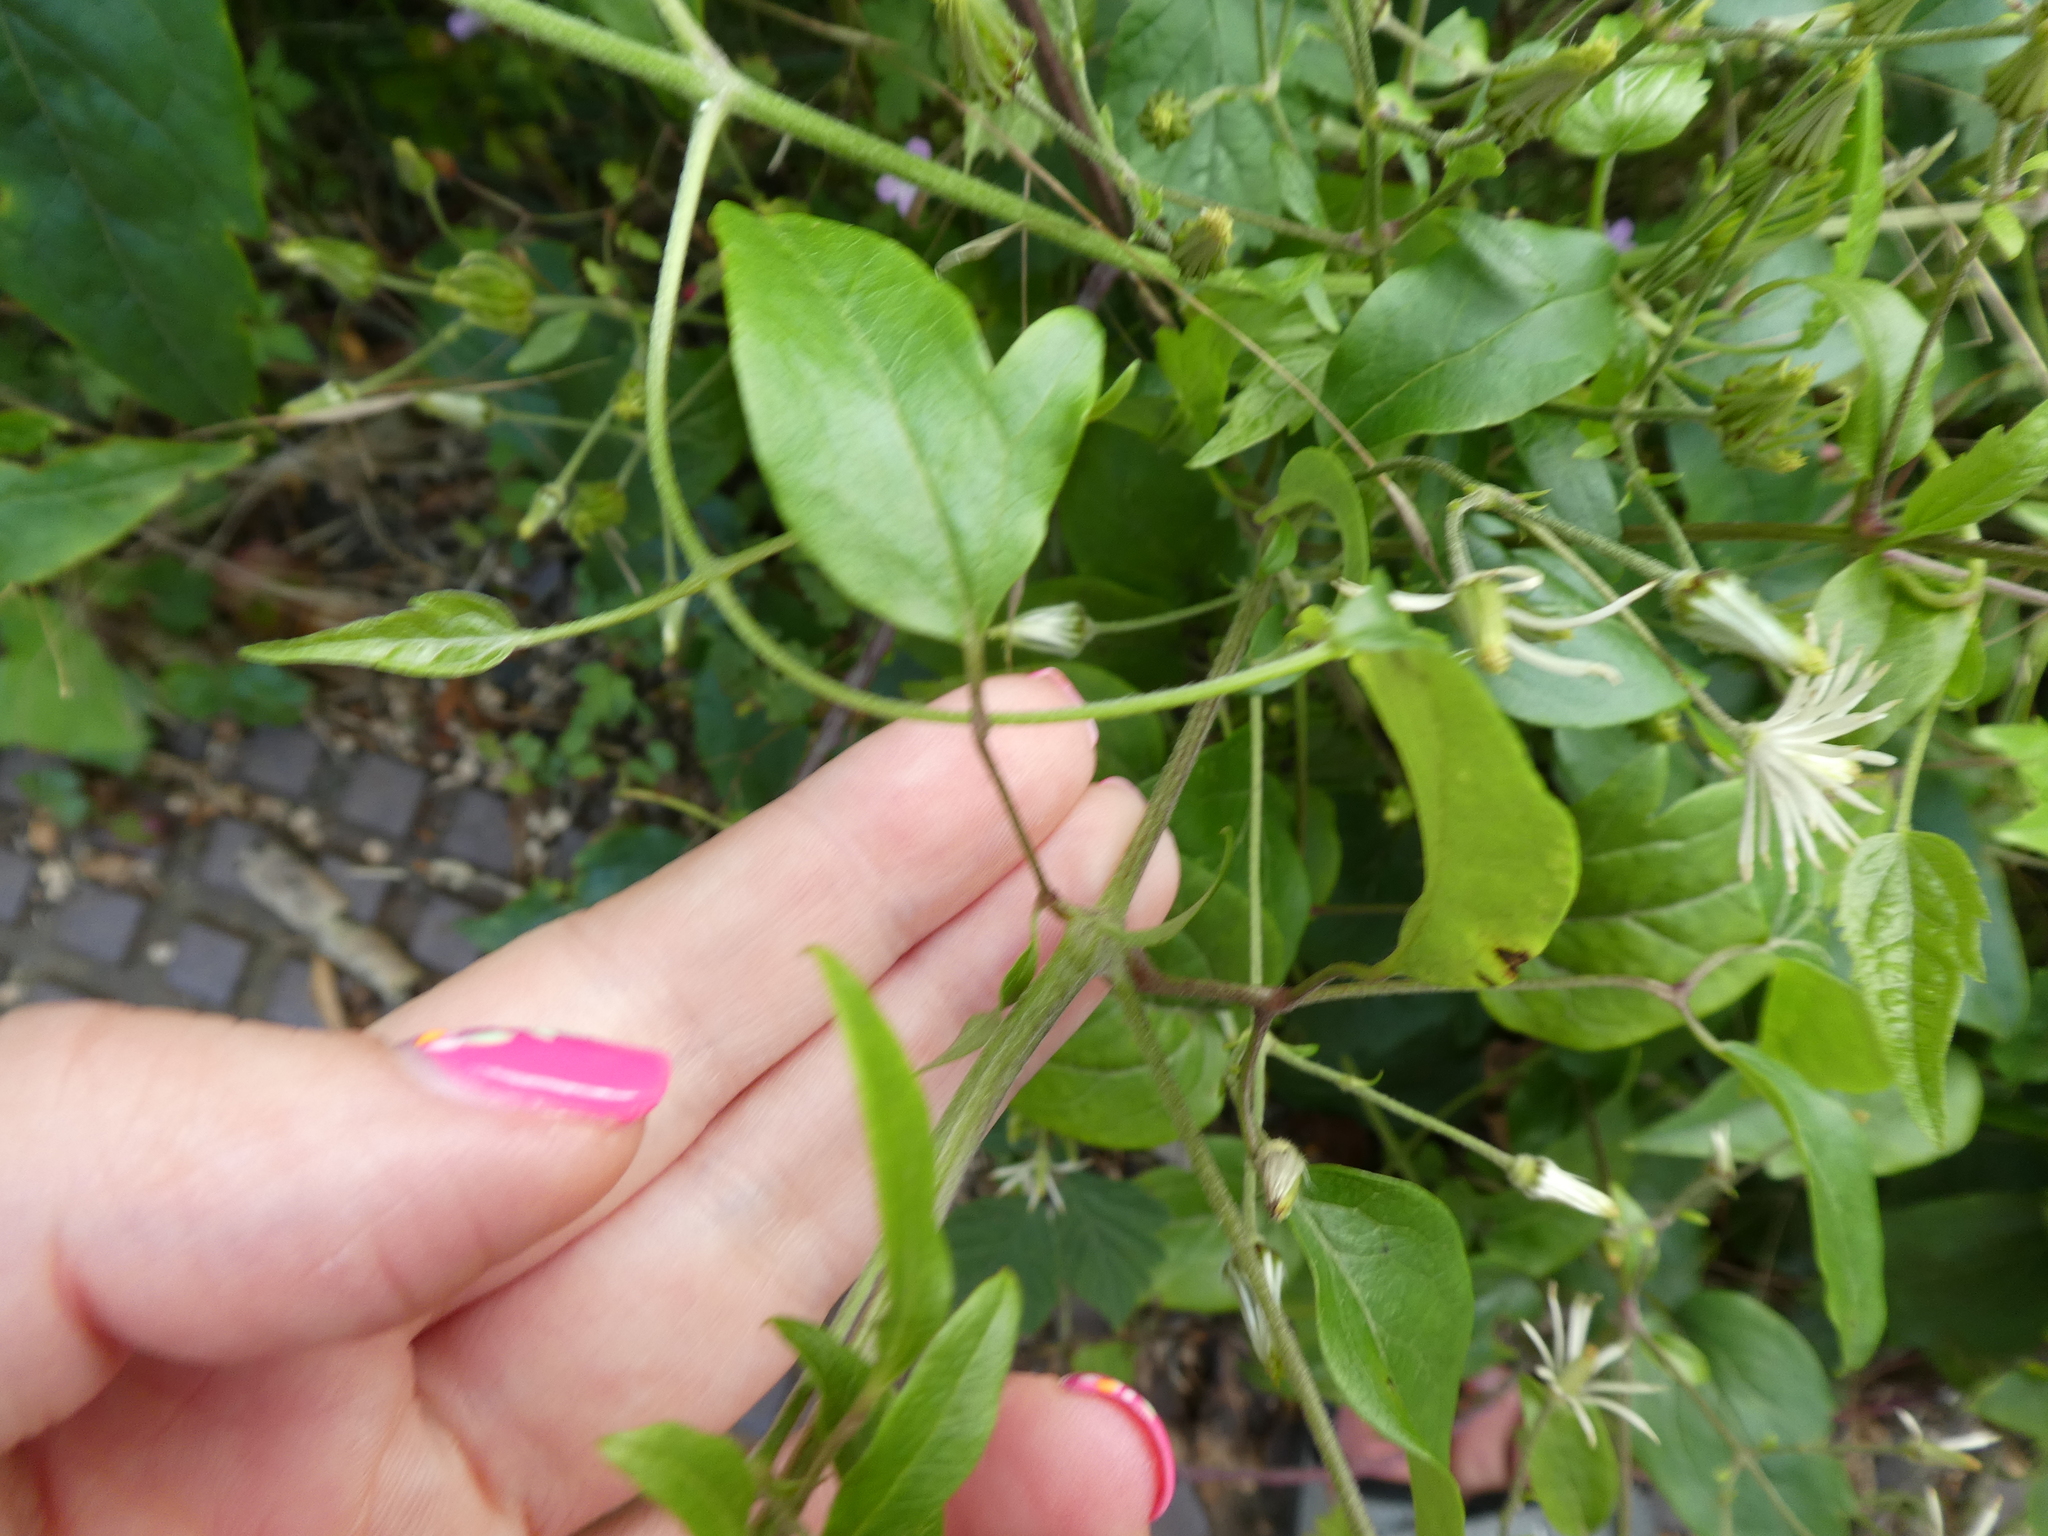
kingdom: Plantae
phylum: Tracheophyta
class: Magnoliopsida
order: Ranunculales
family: Ranunculaceae
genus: Clematis
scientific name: Clematis vitalba
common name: Evergreen clematis
